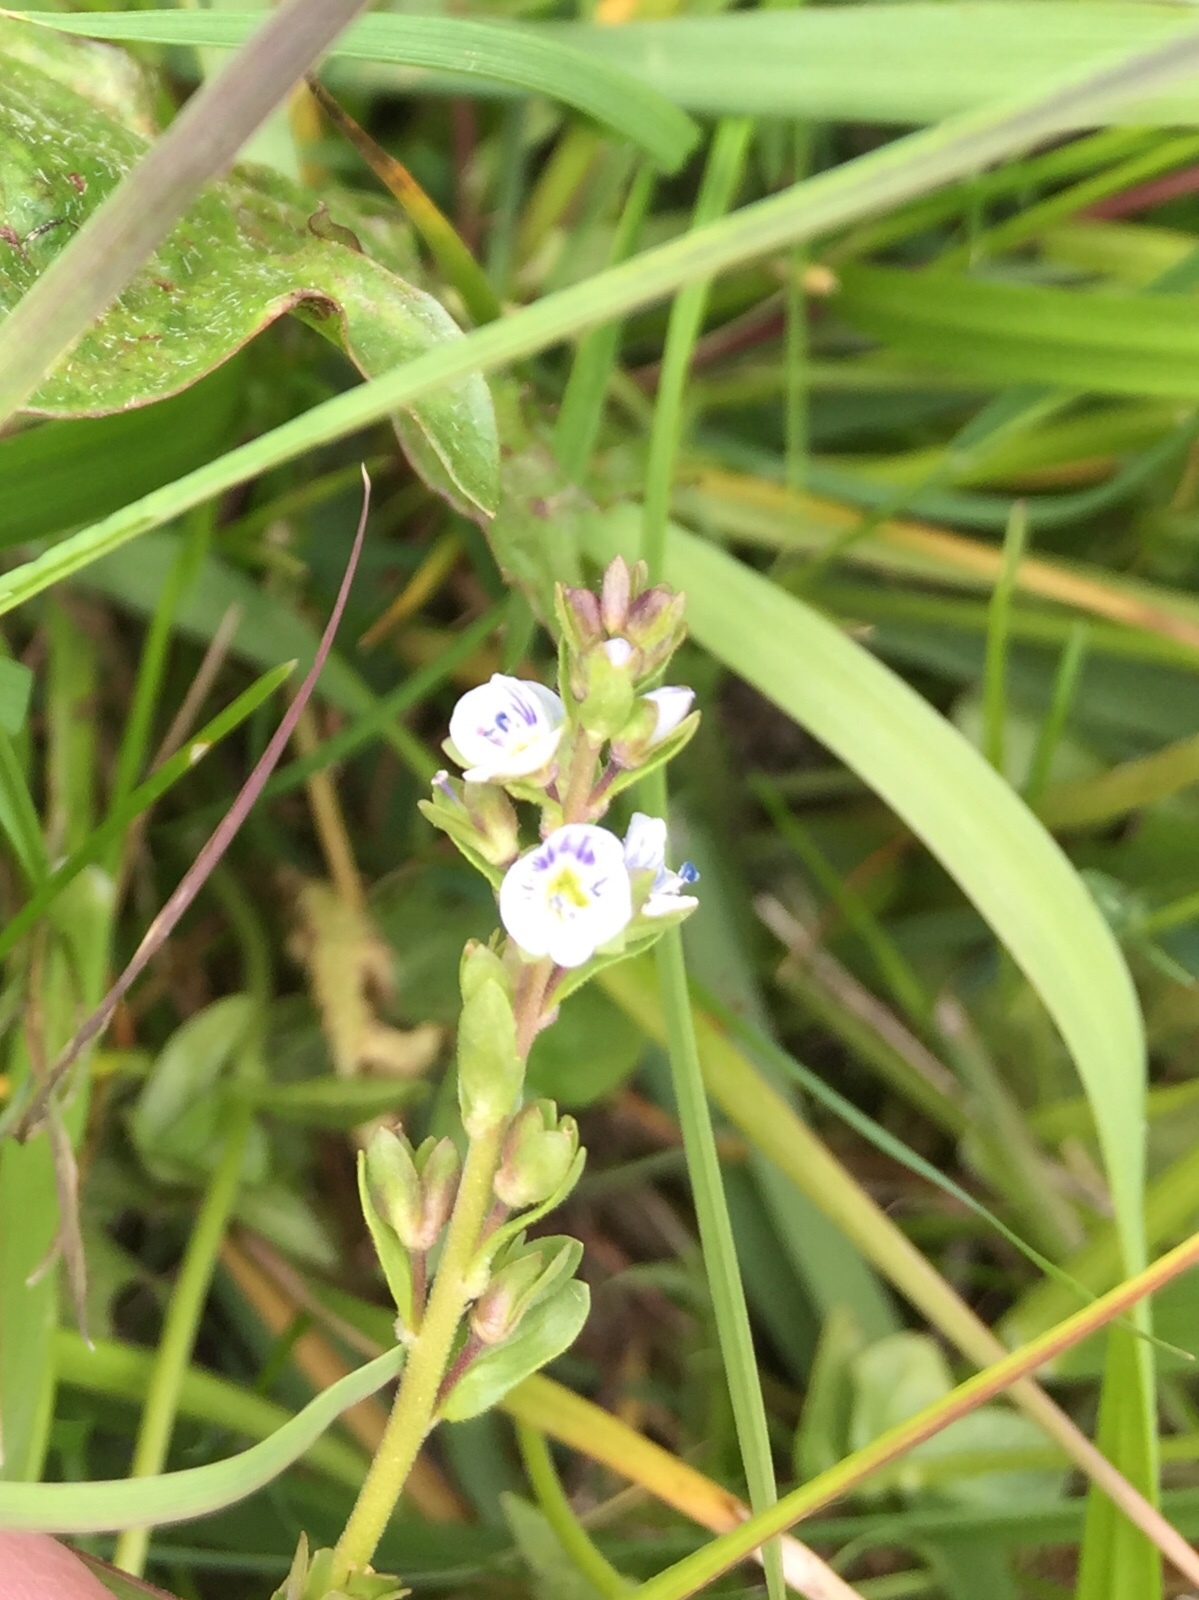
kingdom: Plantae
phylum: Tracheophyta
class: Magnoliopsida
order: Lamiales
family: Plantaginaceae
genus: Veronica
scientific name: Veronica serpyllifolia
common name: Thyme-leaved speedwell
